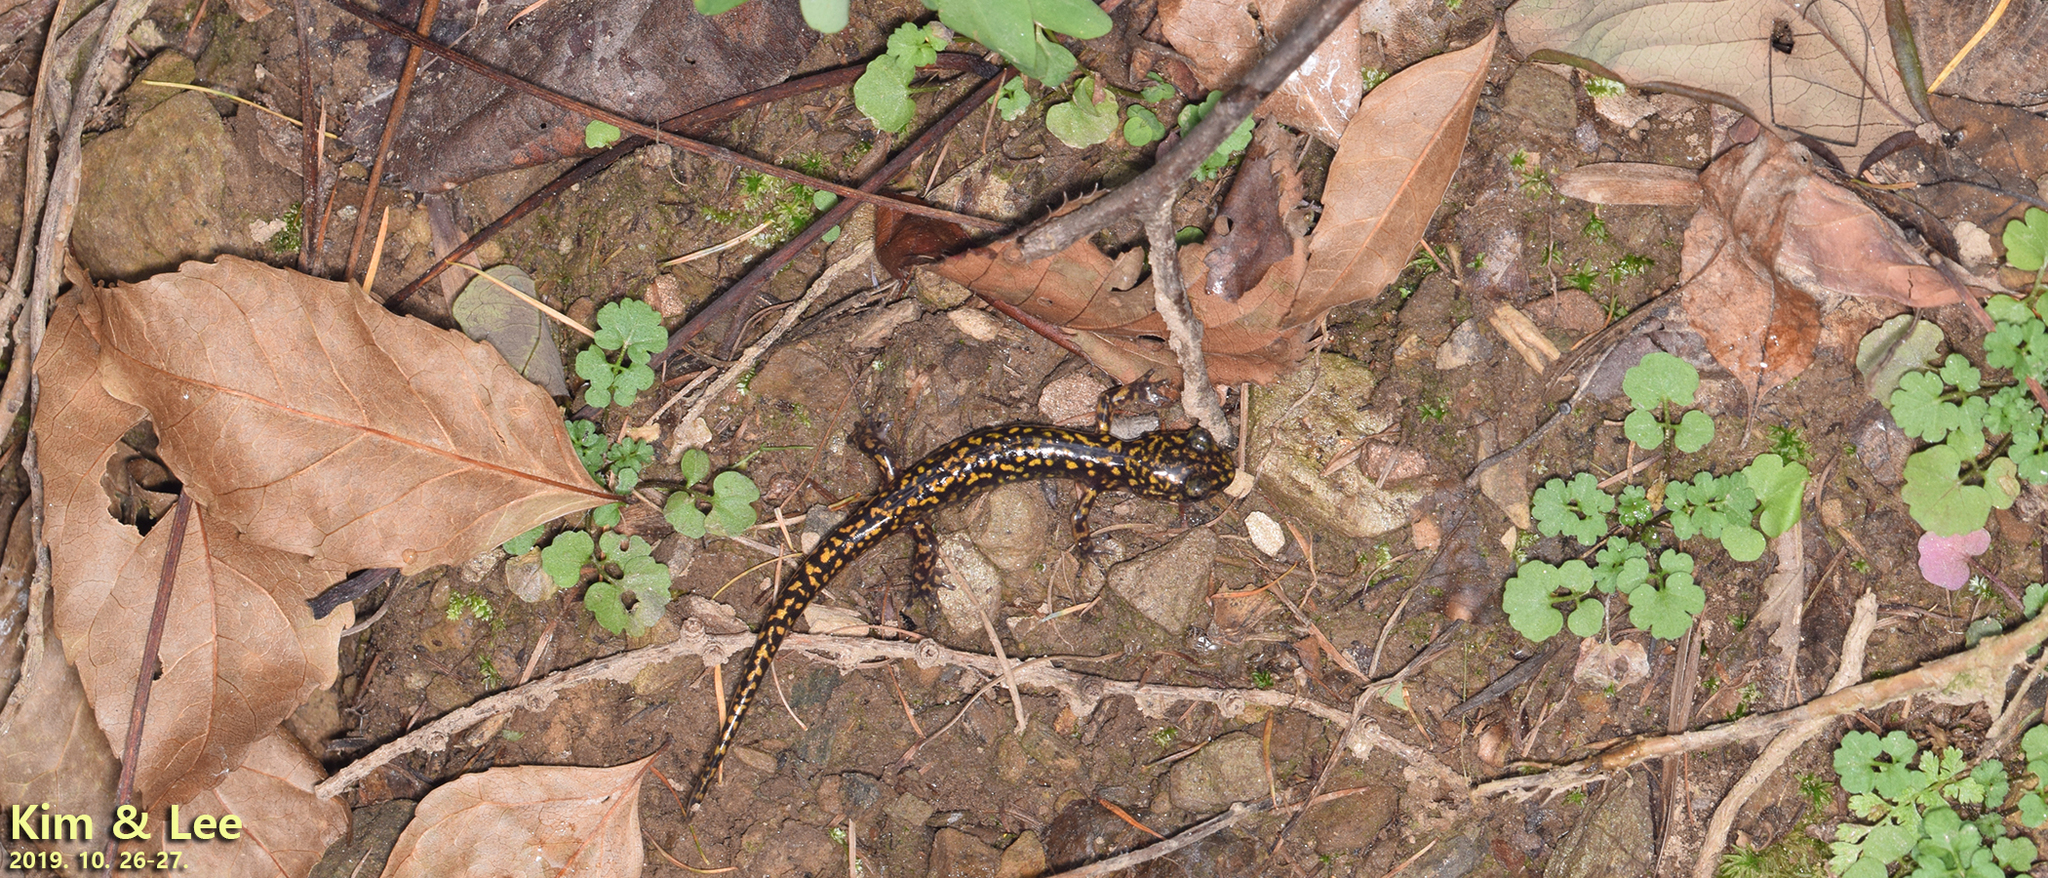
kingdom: Animalia
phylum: Chordata
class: Amphibia
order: Caudata
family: Hynobiidae
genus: Onychodactylus
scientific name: Onychodactylus koreanus
